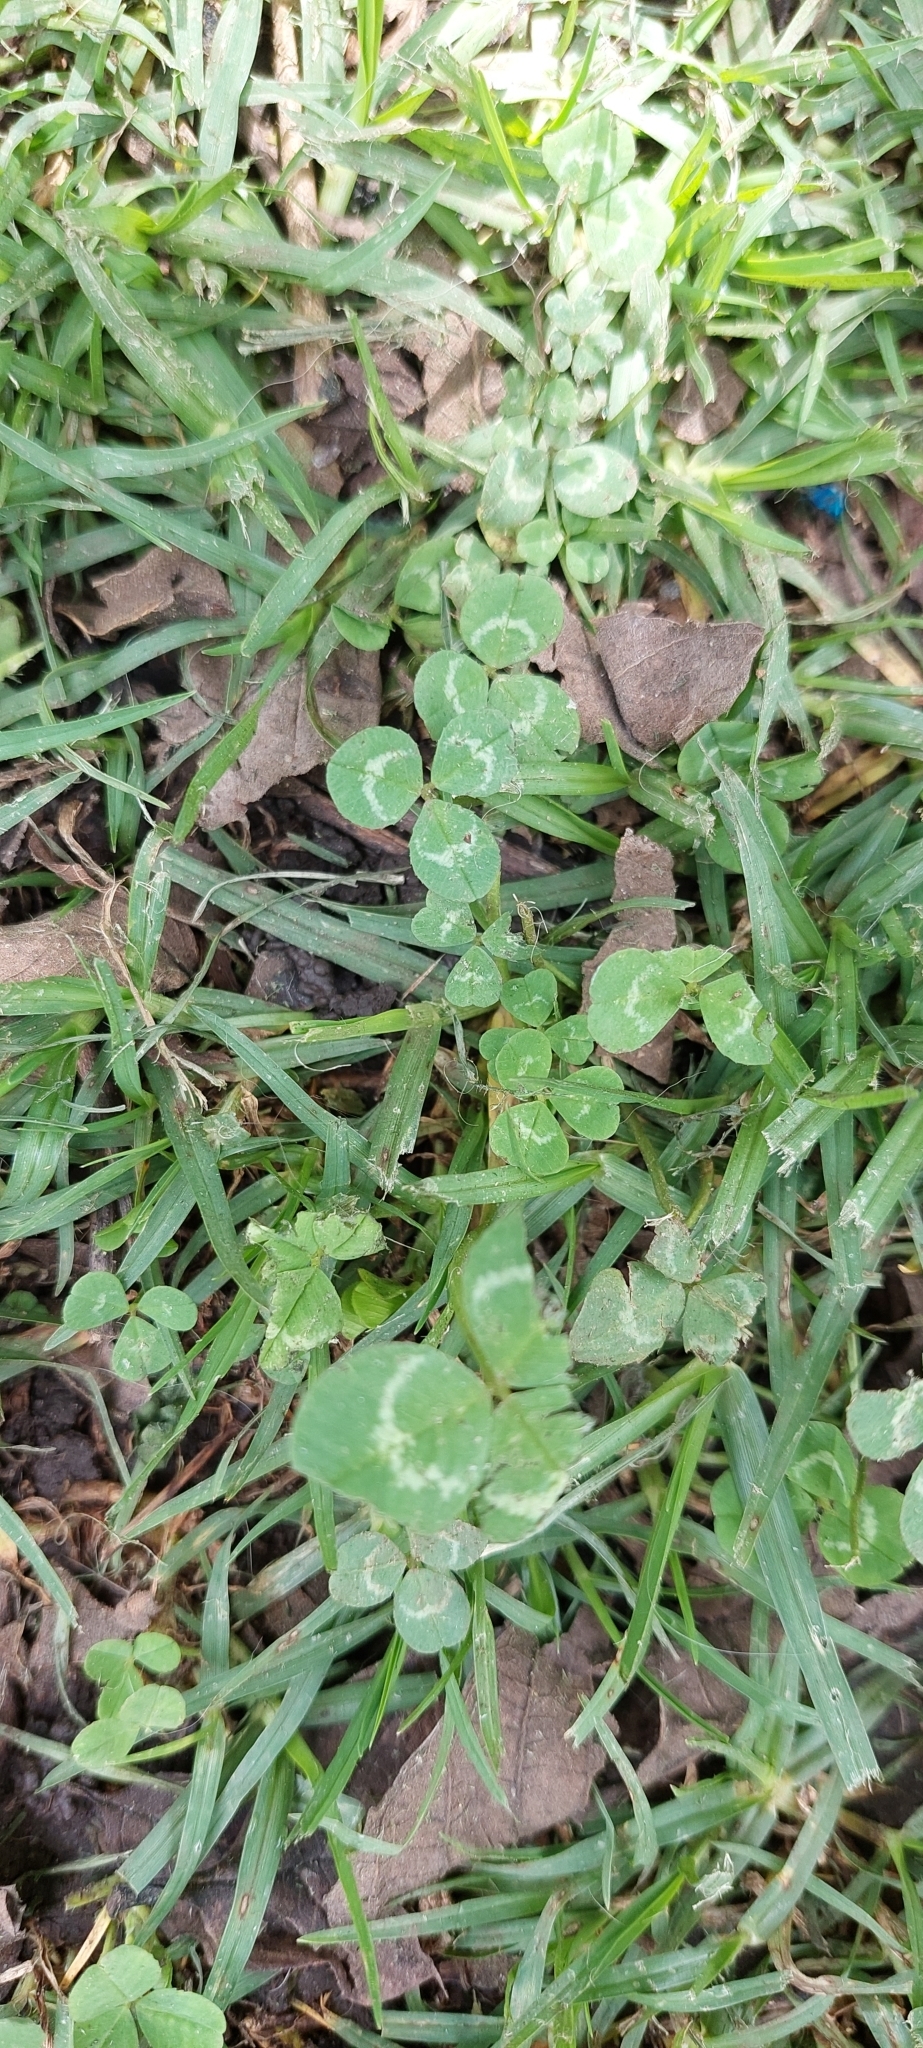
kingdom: Plantae
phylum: Tracheophyta
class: Magnoliopsida
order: Fabales
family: Fabaceae
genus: Trifolium
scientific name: Trifolium repens
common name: White clover
